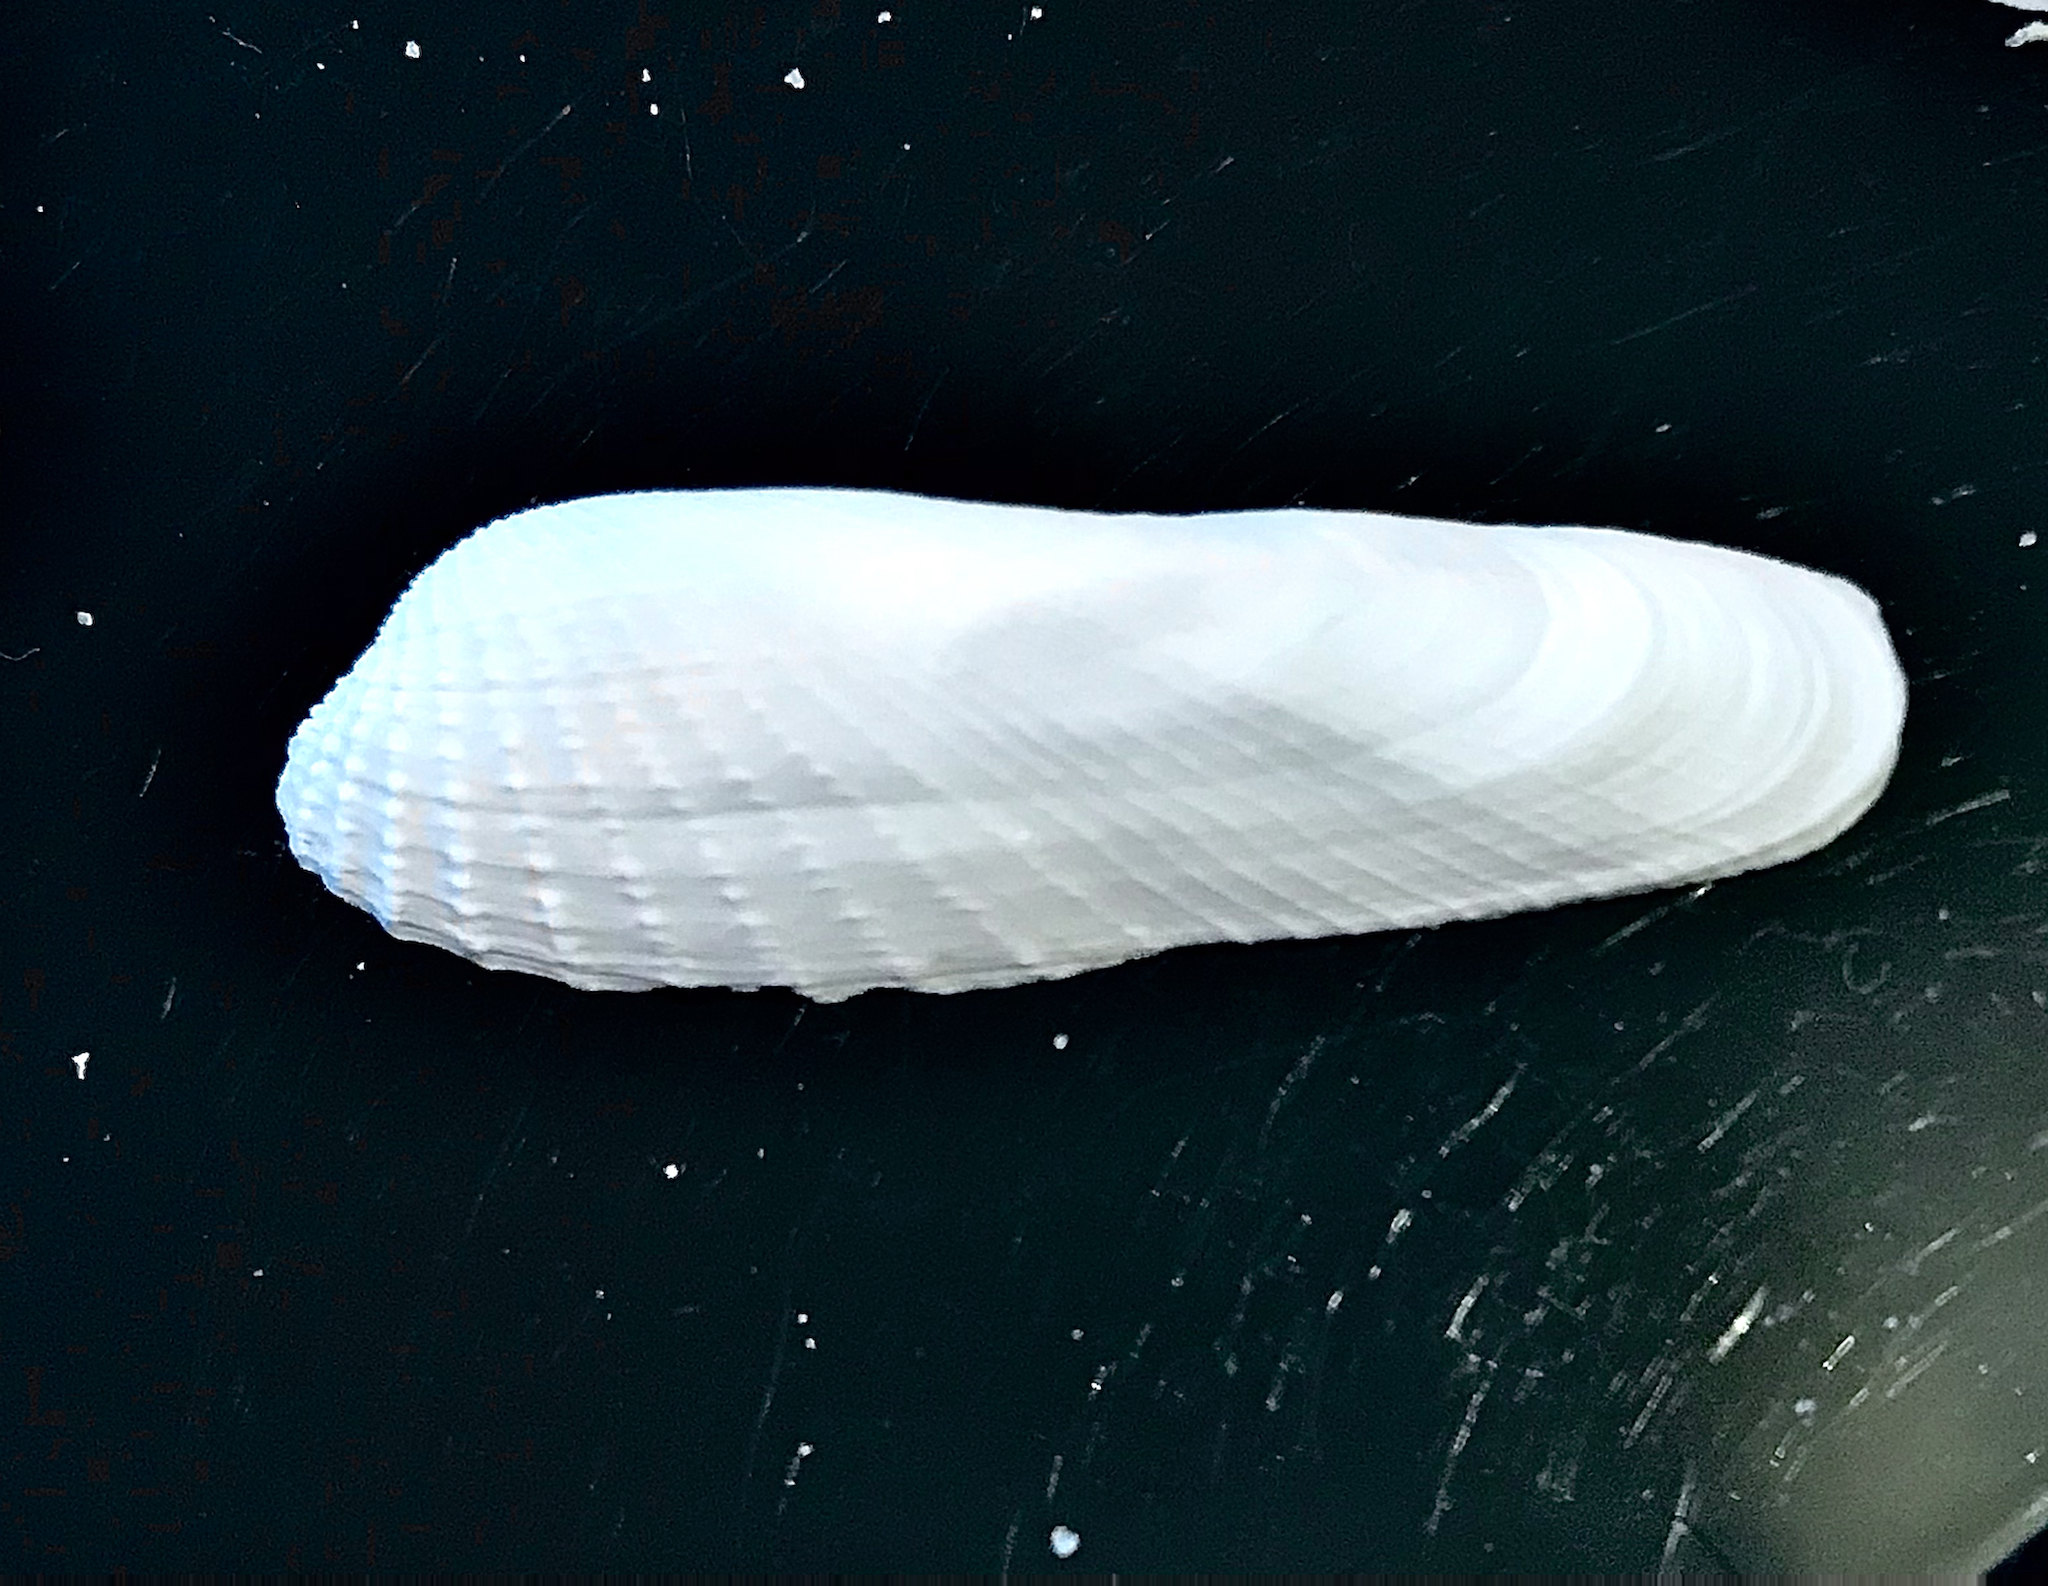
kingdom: Animalia
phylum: Mollusca
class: Bivalvia
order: Venerida
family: Veneridae
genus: Petricolaria
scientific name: Petricolaria pholadiformis
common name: American piddock
